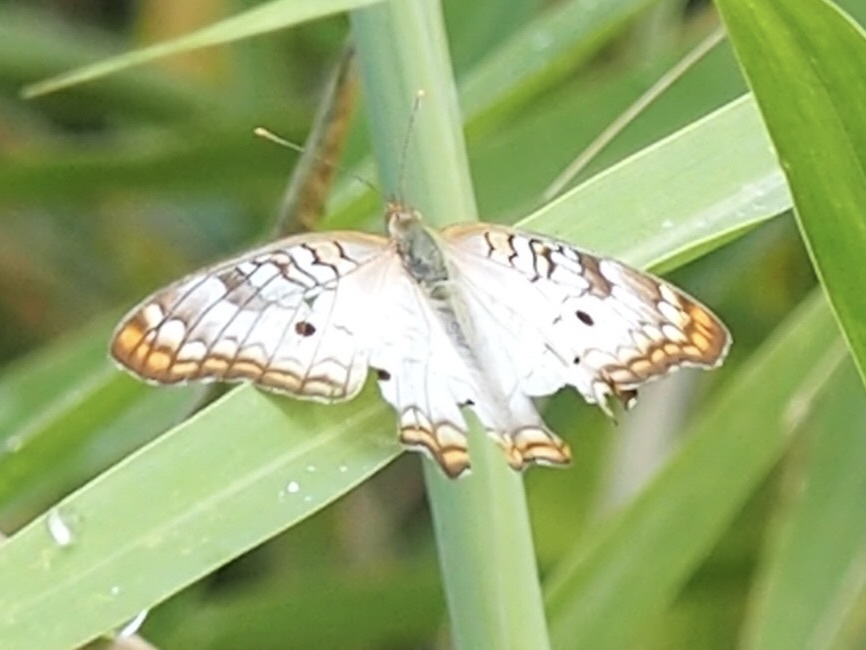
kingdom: Animalia
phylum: Arthropoda
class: Insecta
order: Lepidoptera
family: Nymphalidae
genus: Anartia
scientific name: Anartia jatrophae
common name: White peacock
